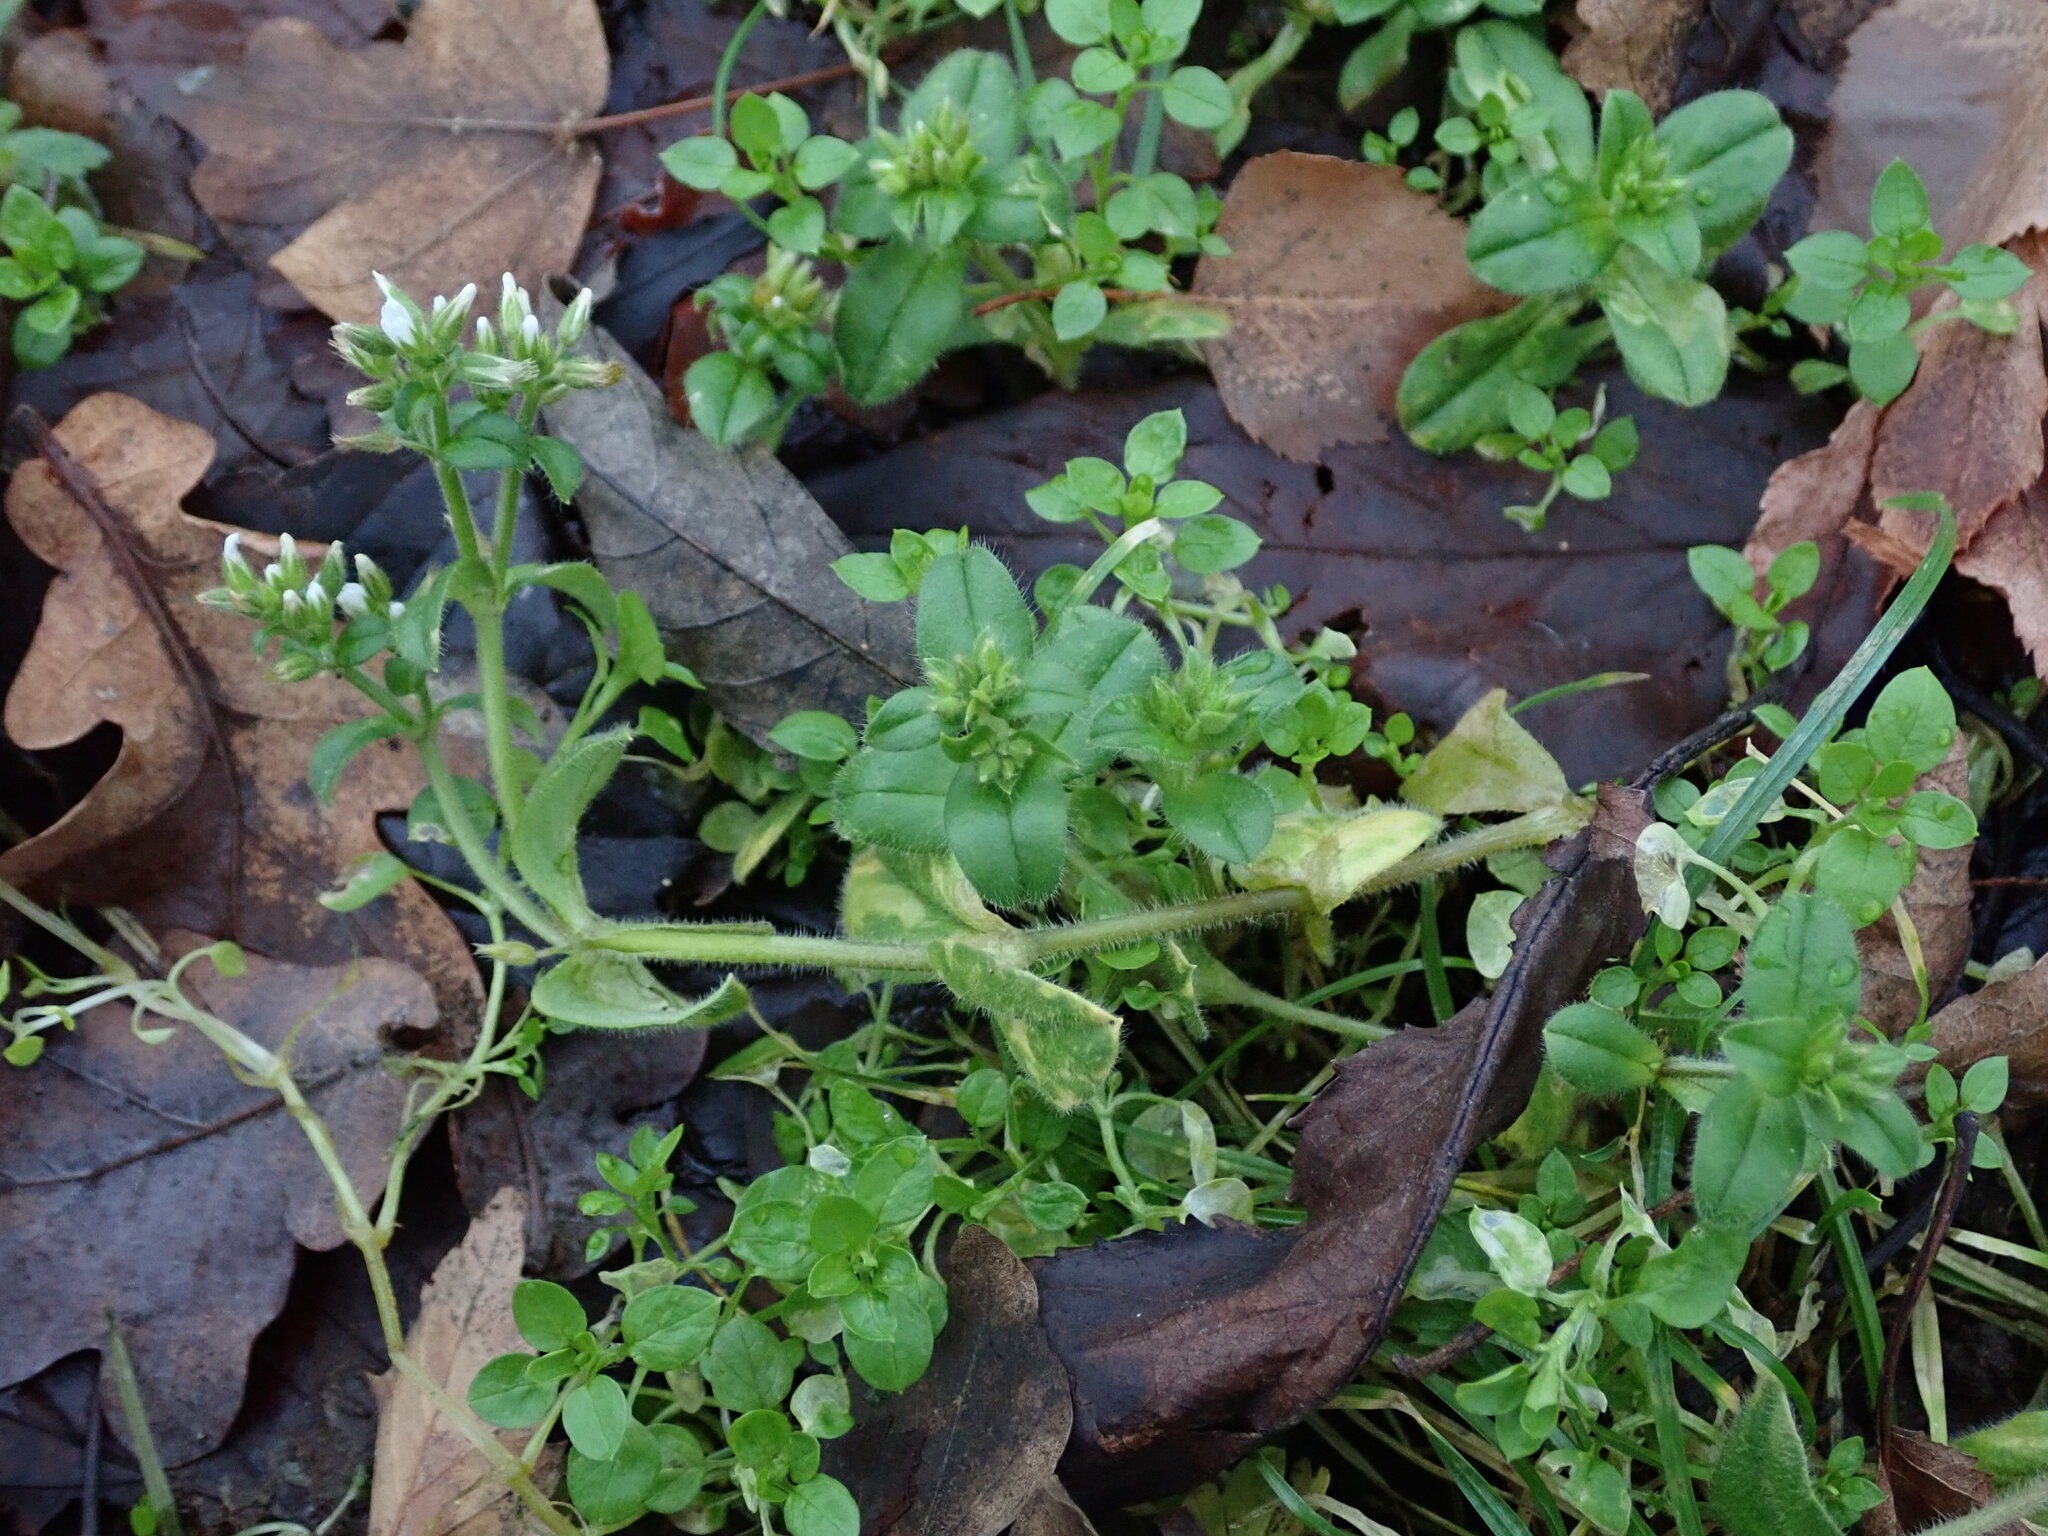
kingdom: Plantae
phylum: Tracheophyta
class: Magnoliopsida
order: Caryophyllales
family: Caryophyllaceae
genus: Cerastium
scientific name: Cerastium glomeratum
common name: Sticky chickweed
